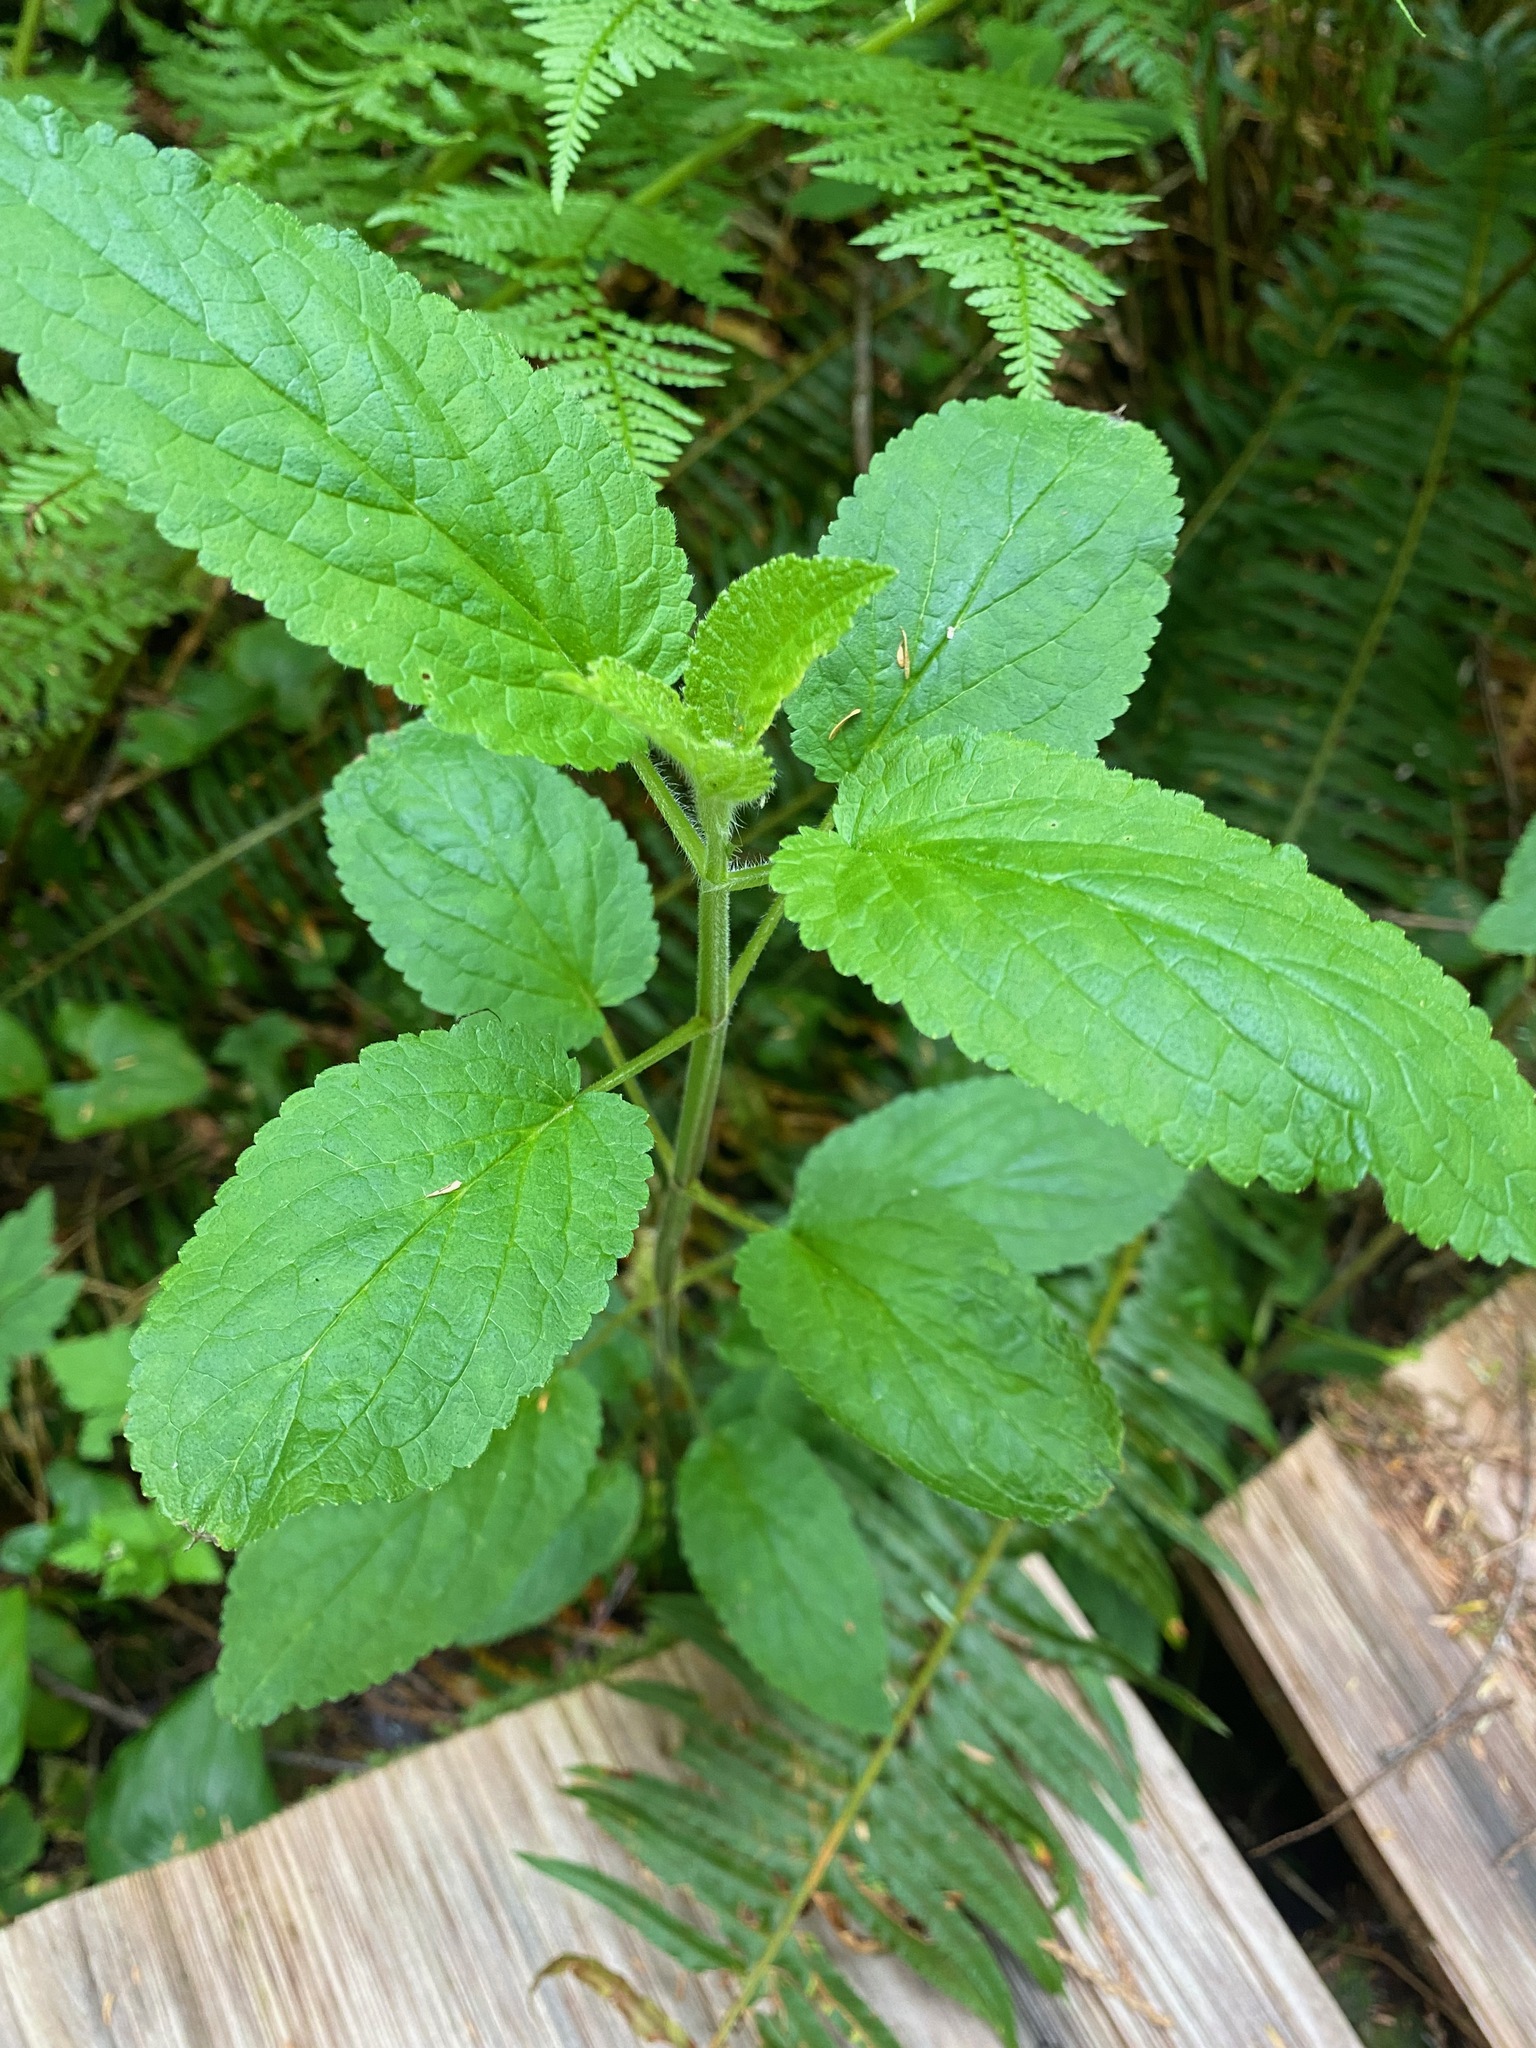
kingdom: Plantae
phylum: Tracheophyta
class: Magnoliopsida
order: Lamiales
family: Lamiaceae
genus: Stachys
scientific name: Stachys chamissonis
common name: Coastal hedge-nettle
